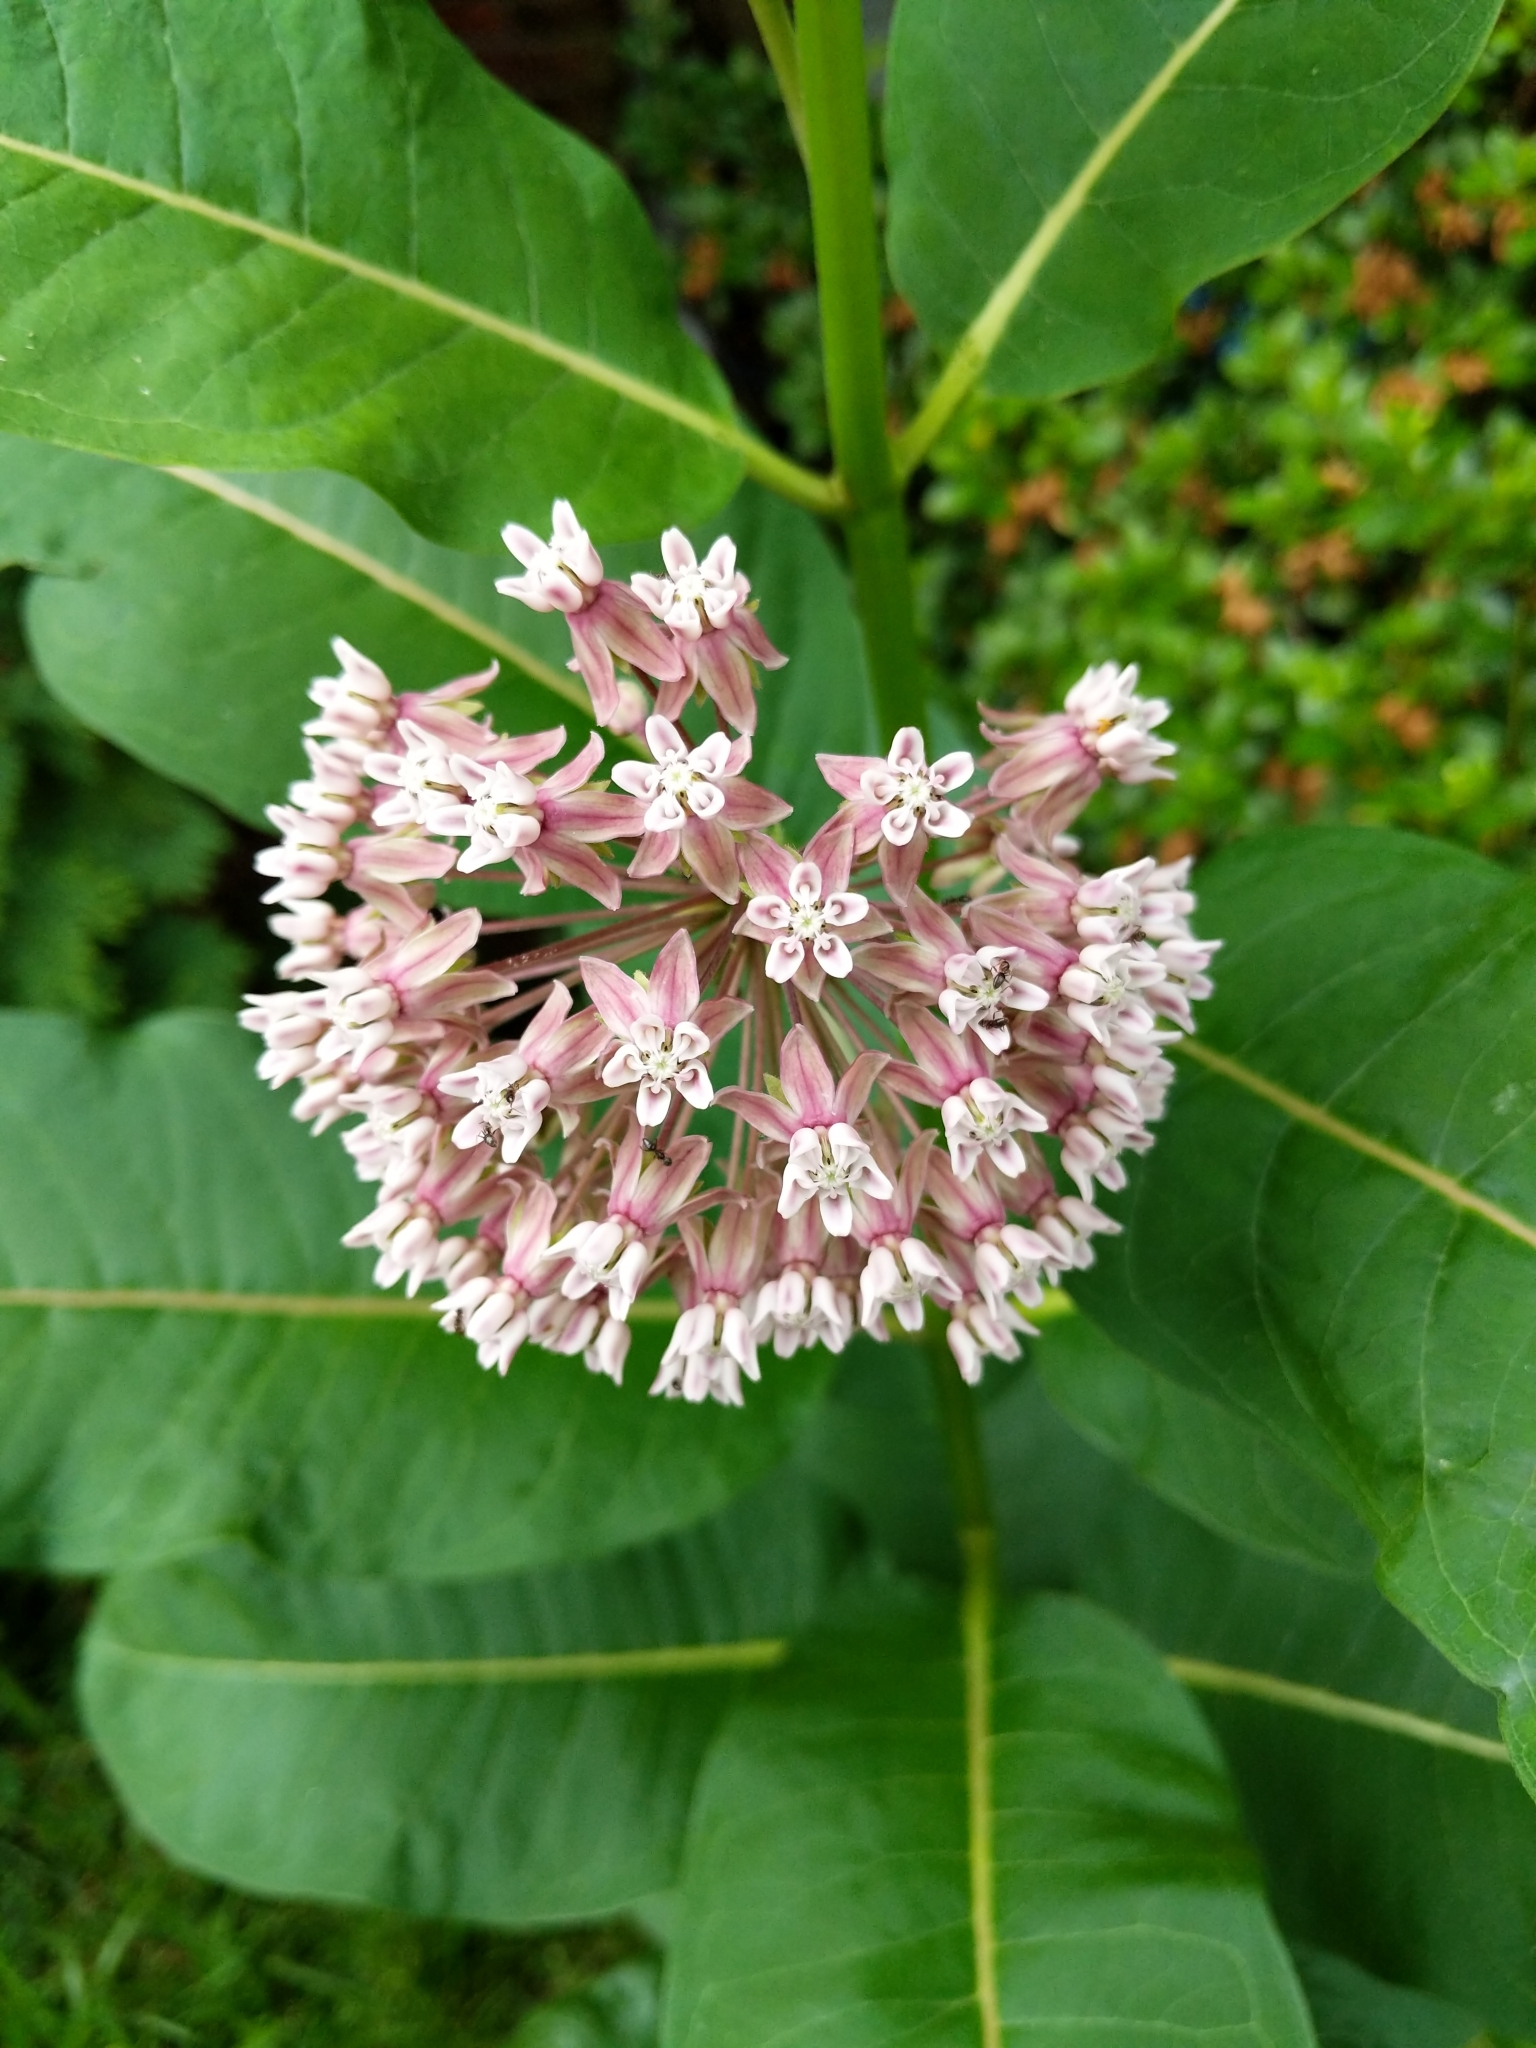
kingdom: Plantae
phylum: Tracheophyta
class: Magnoliopsida
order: Gentianales
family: Apocynaceae
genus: Asclepias
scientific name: Asclepias syriaca
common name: Common milkweed
